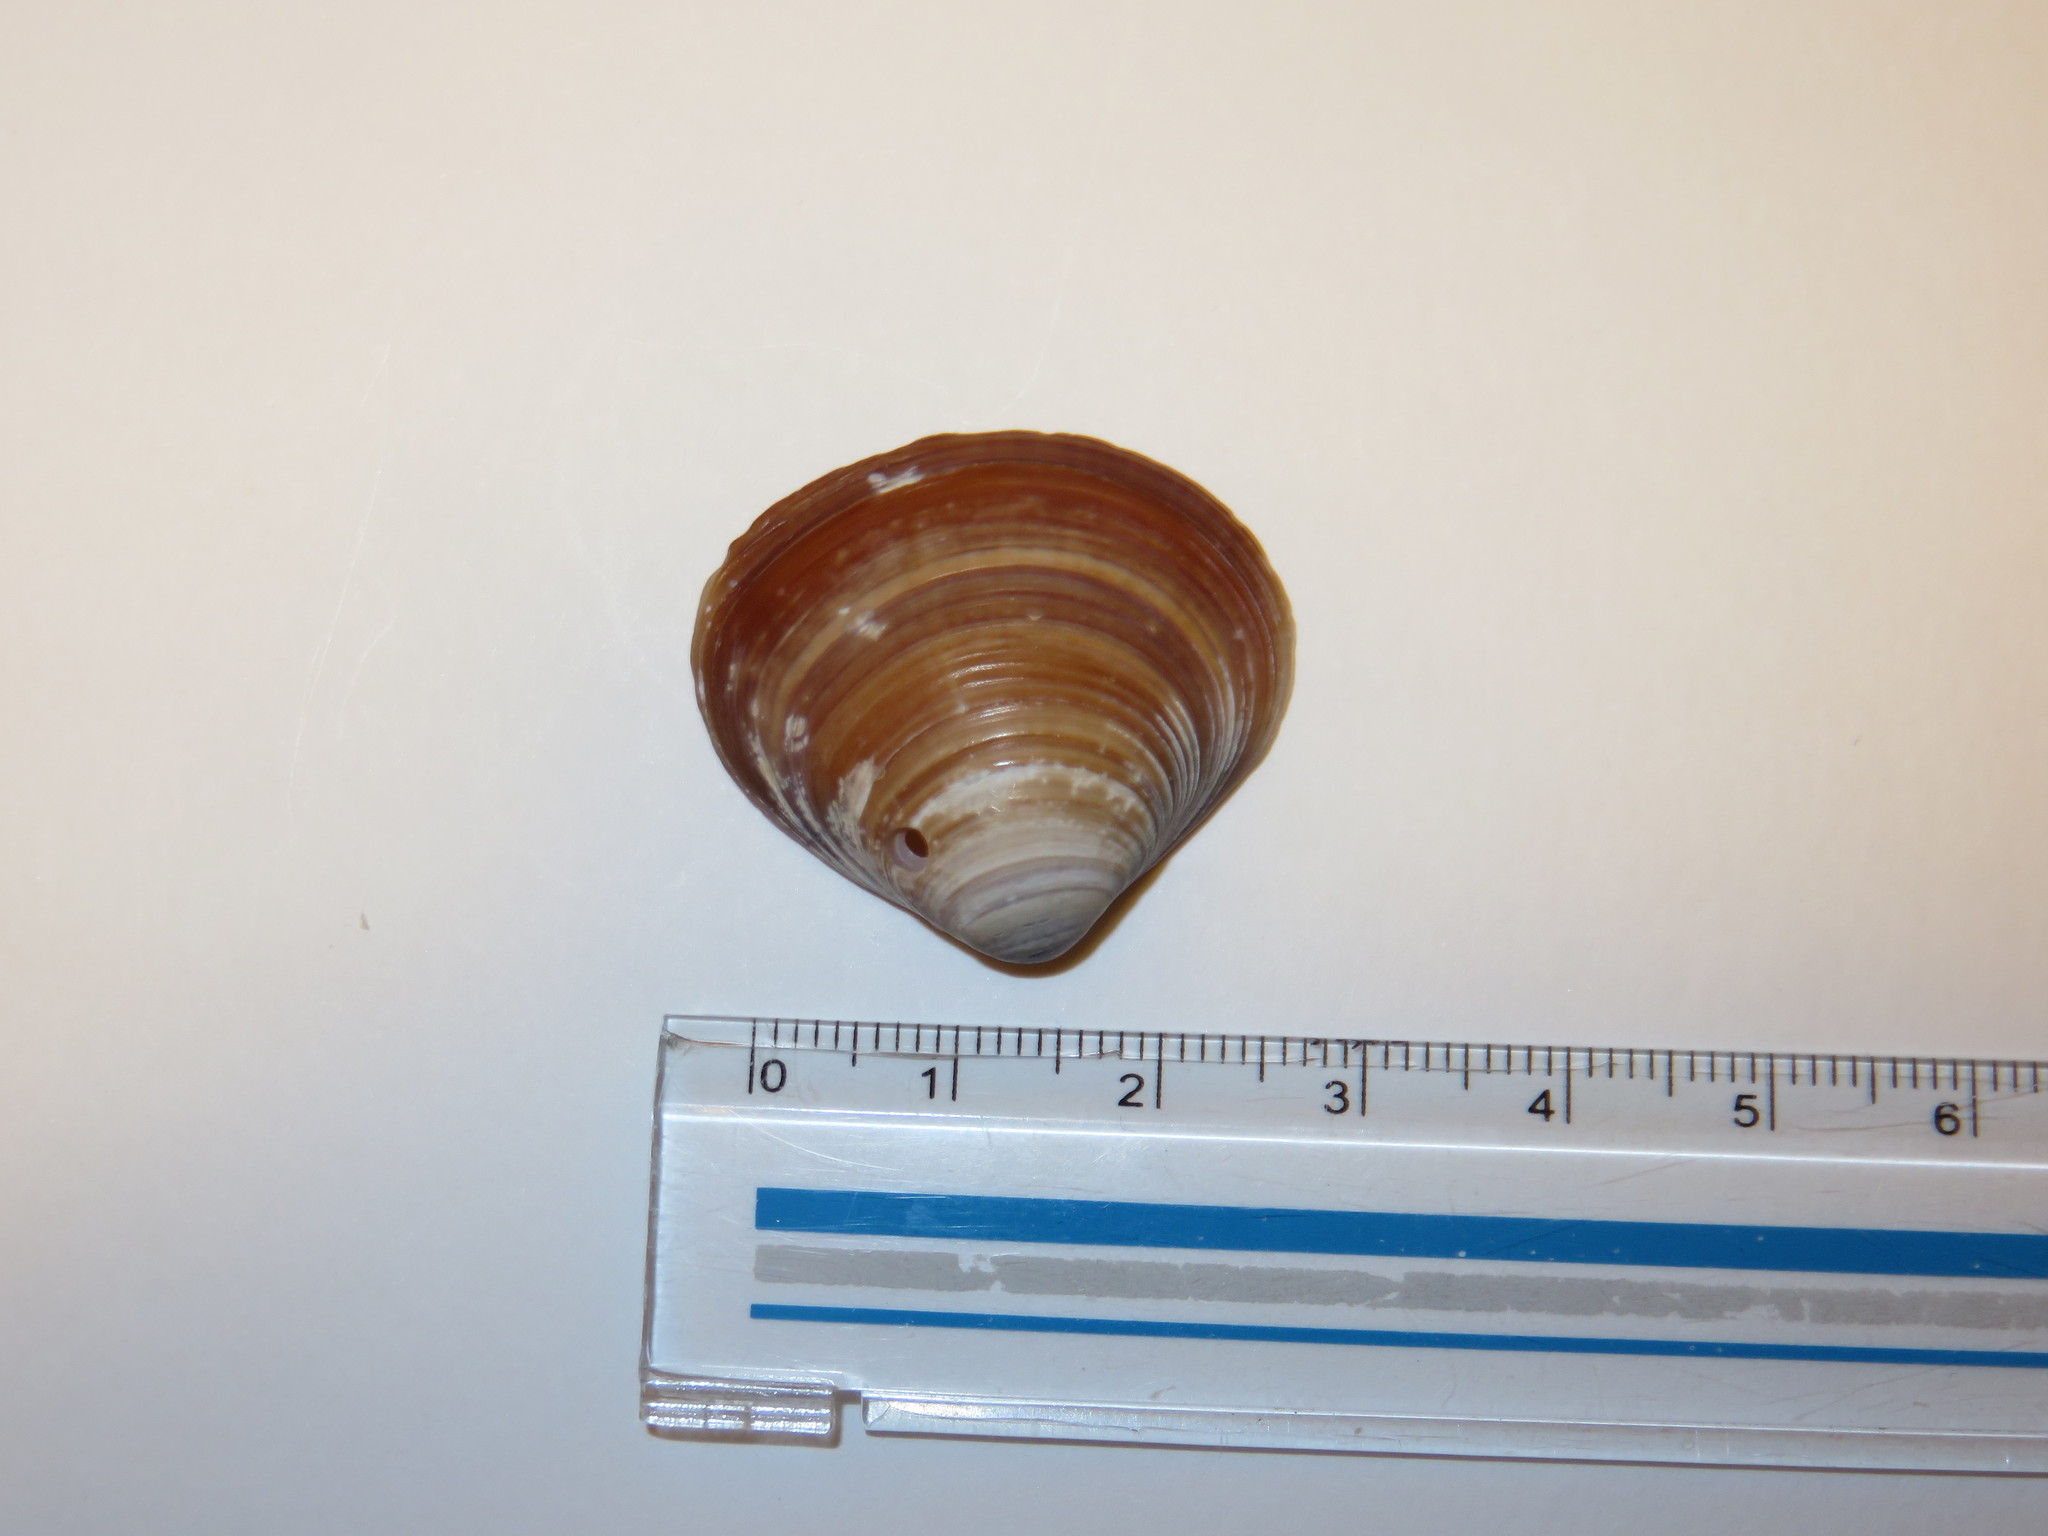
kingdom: Animalia
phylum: Mollusca
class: Bivalvia
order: Venerida
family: Cyrenidae
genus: Corbicula
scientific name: Corbicula japonica
